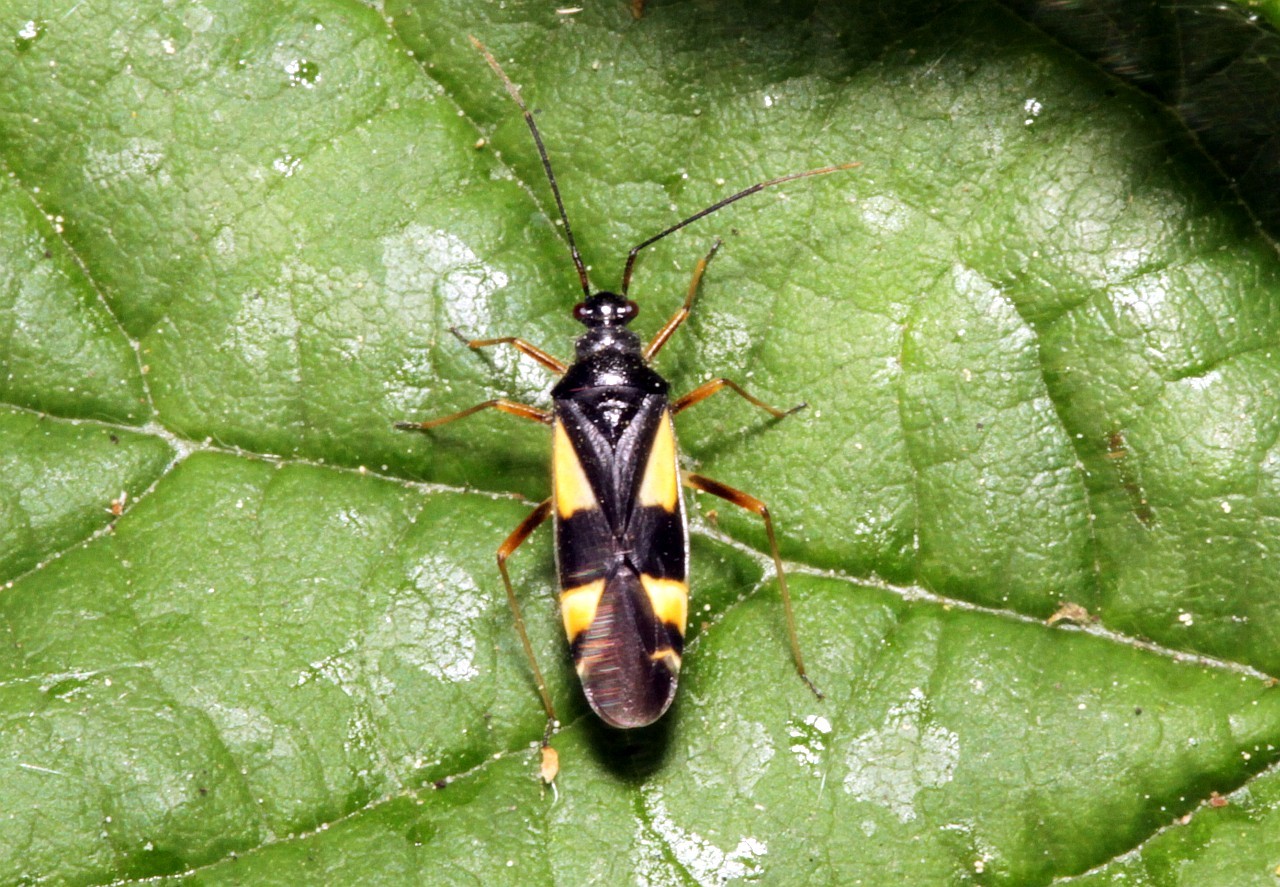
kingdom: Animalia
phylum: Arthropoda
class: Insecta
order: Hemiptera
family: Miridae
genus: Dryophilocoris
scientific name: Dryophilocoris flavoquadrimaculatus
